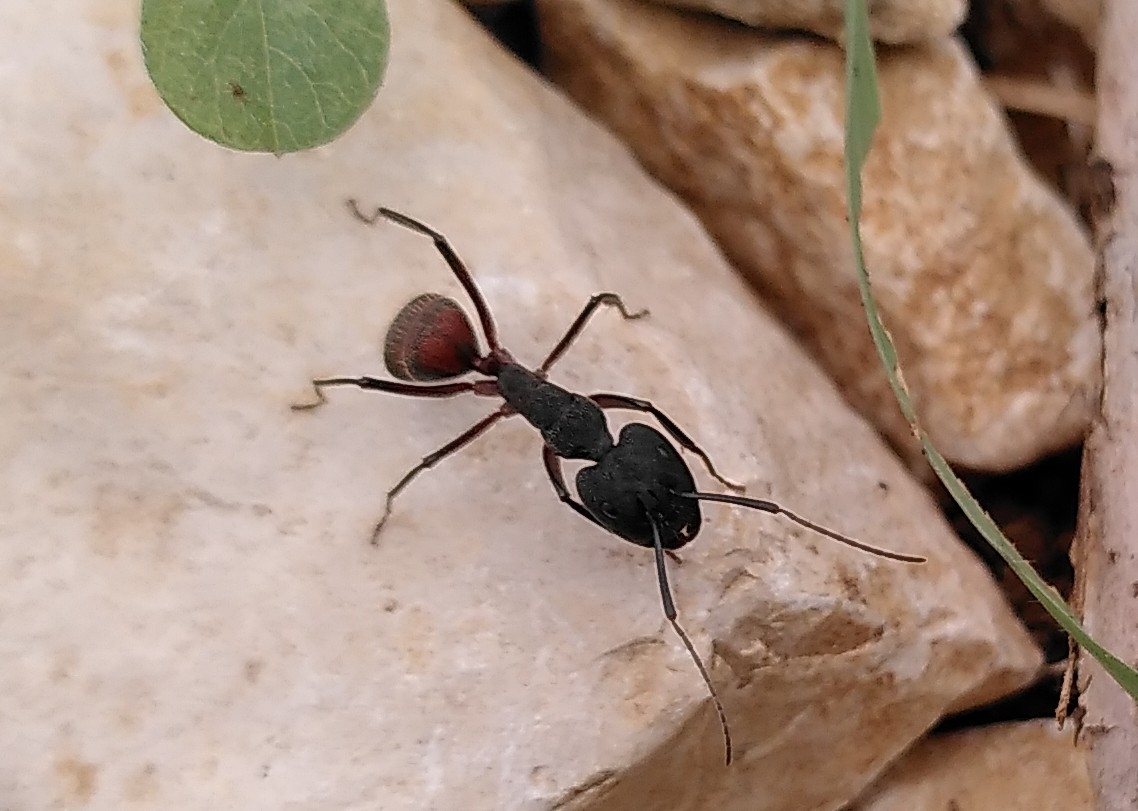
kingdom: Animalia
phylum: Arthropoda
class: Insecta
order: Hymenoptera
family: Formicidae
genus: Camponotus
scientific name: Camponotus cruentatus
